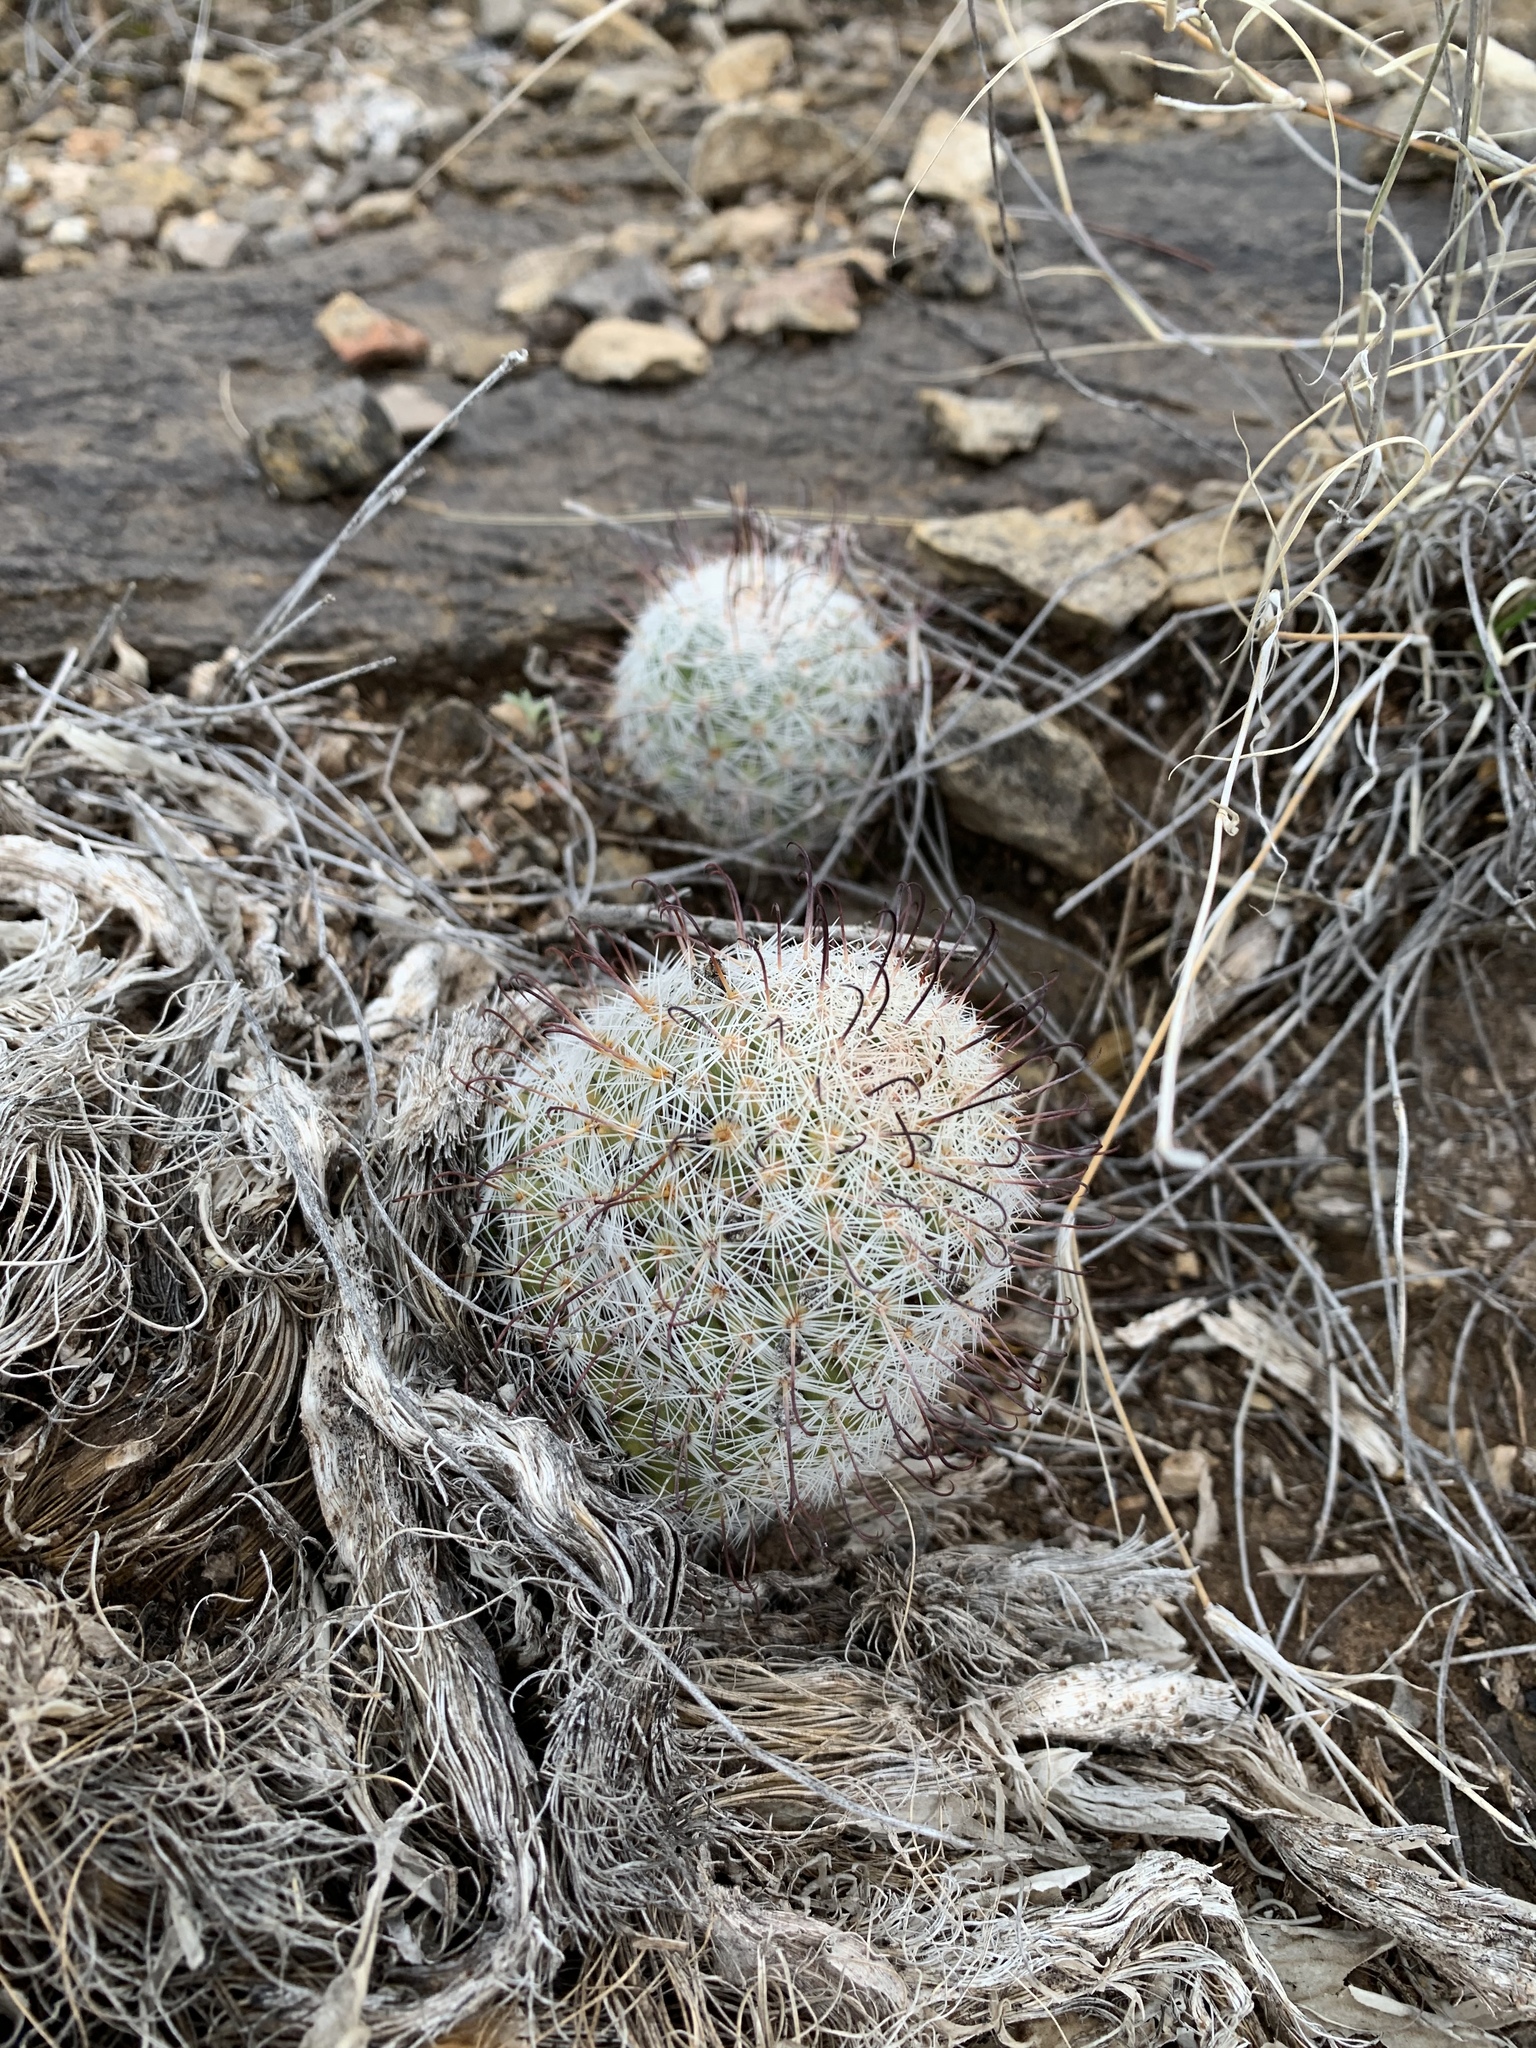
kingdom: Plantae
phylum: Tracheophyta
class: Magnoliopsida
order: Caryophyllales
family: Cactaceae
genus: Cochemiea
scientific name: Cochemiea grahamii
